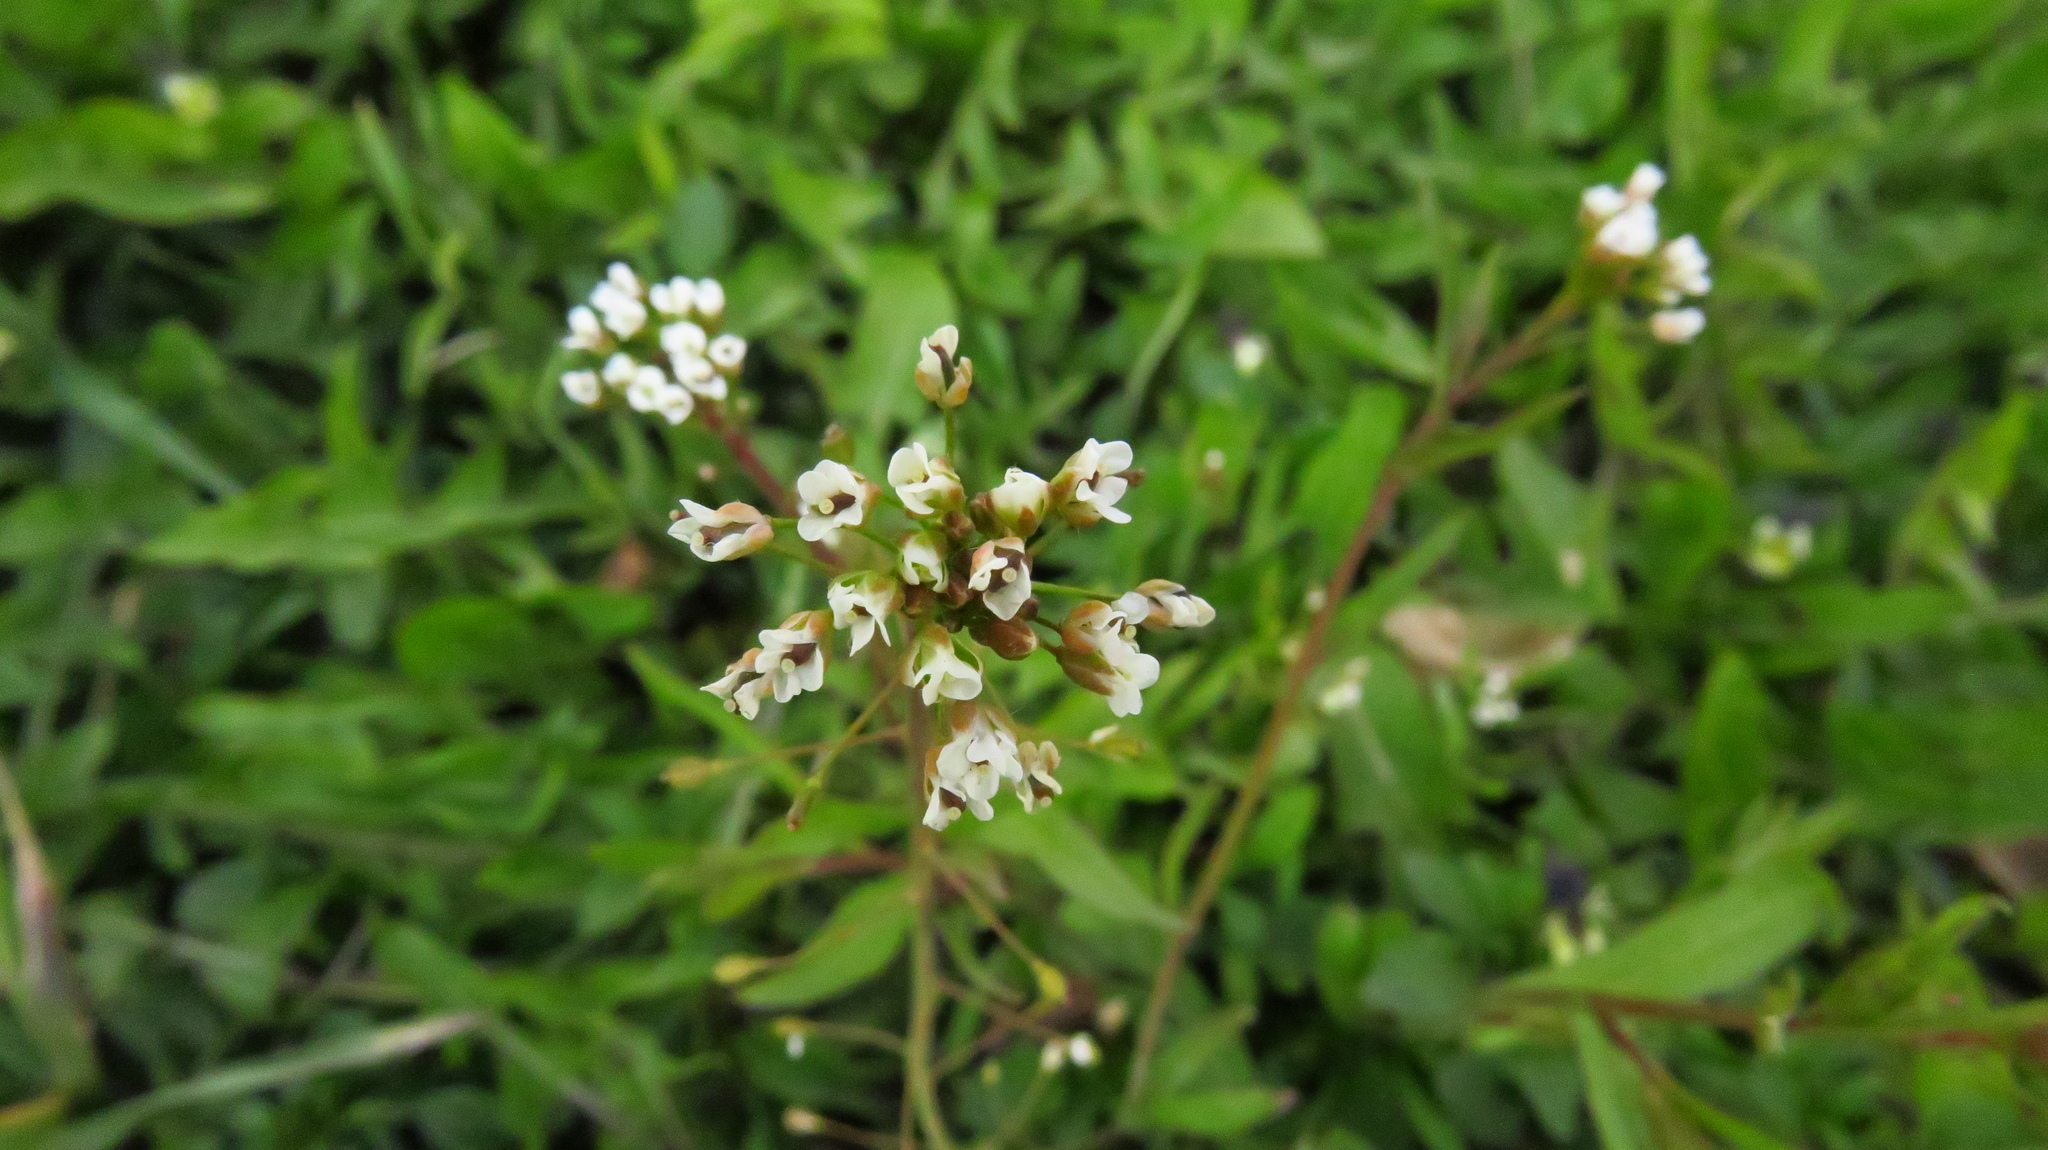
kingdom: Plantae
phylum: Tracheophyta
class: Magnoliopsida
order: Brassicales
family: Brassicaceae
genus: Capsella
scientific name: Capsella bursa-pastoris
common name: Shepherd's purse
